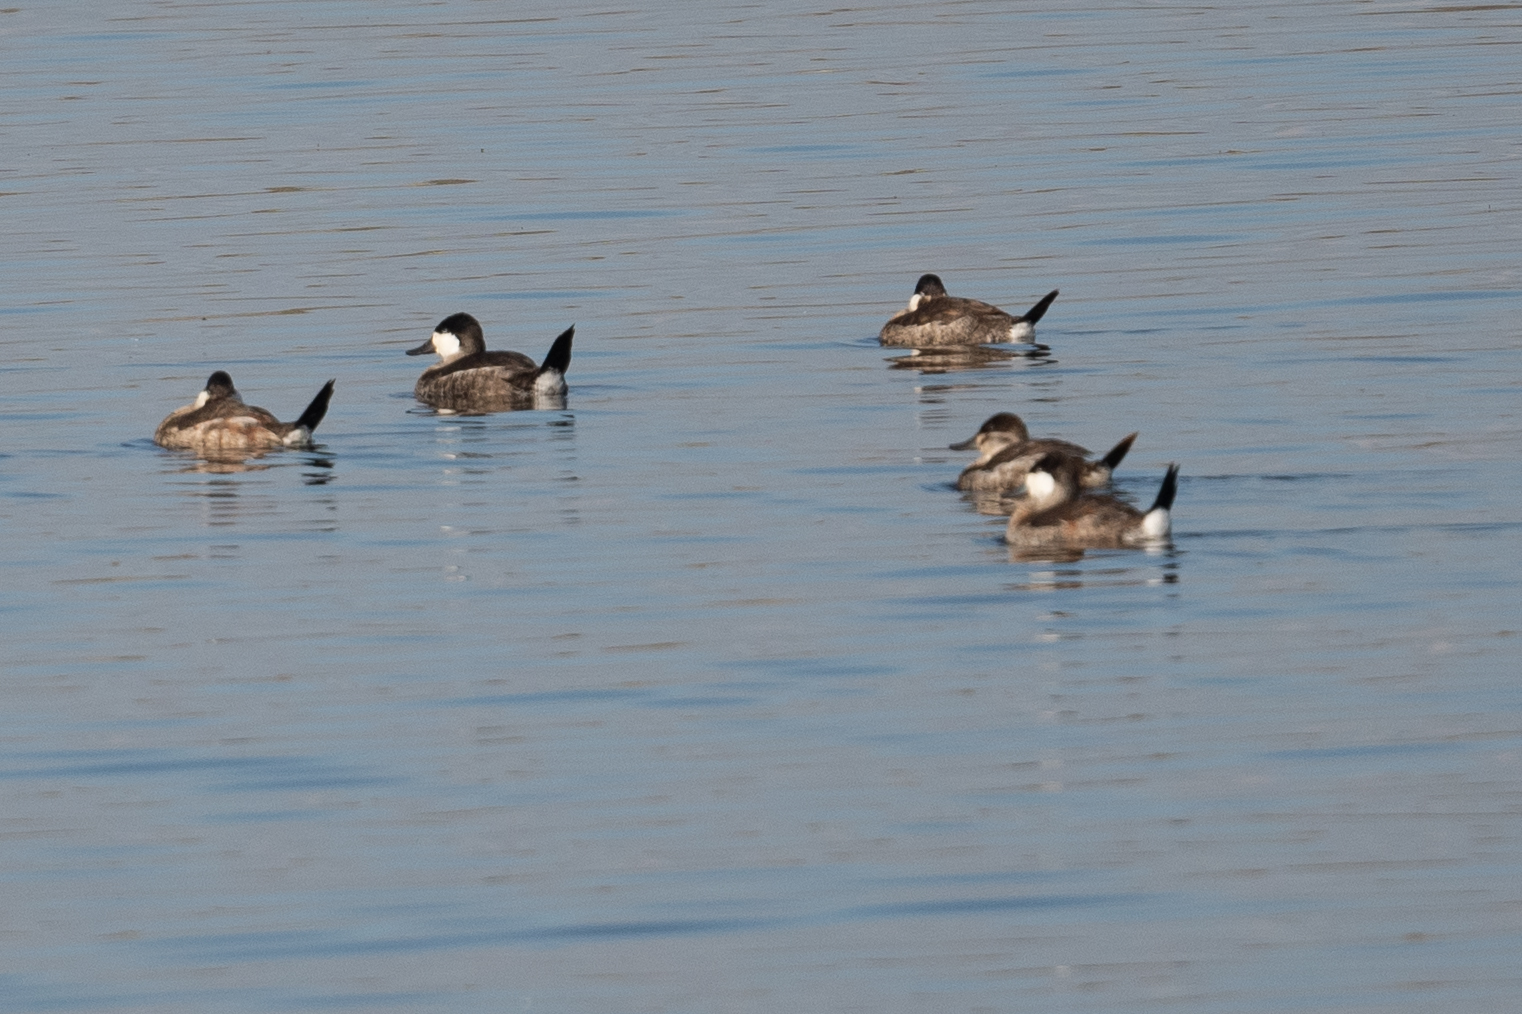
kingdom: Animalia
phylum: Chordata
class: Aves
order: Anseriformes
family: Anatidae
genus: Oxyura
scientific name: Oxyura jamaicensis
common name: Ruddy duck
